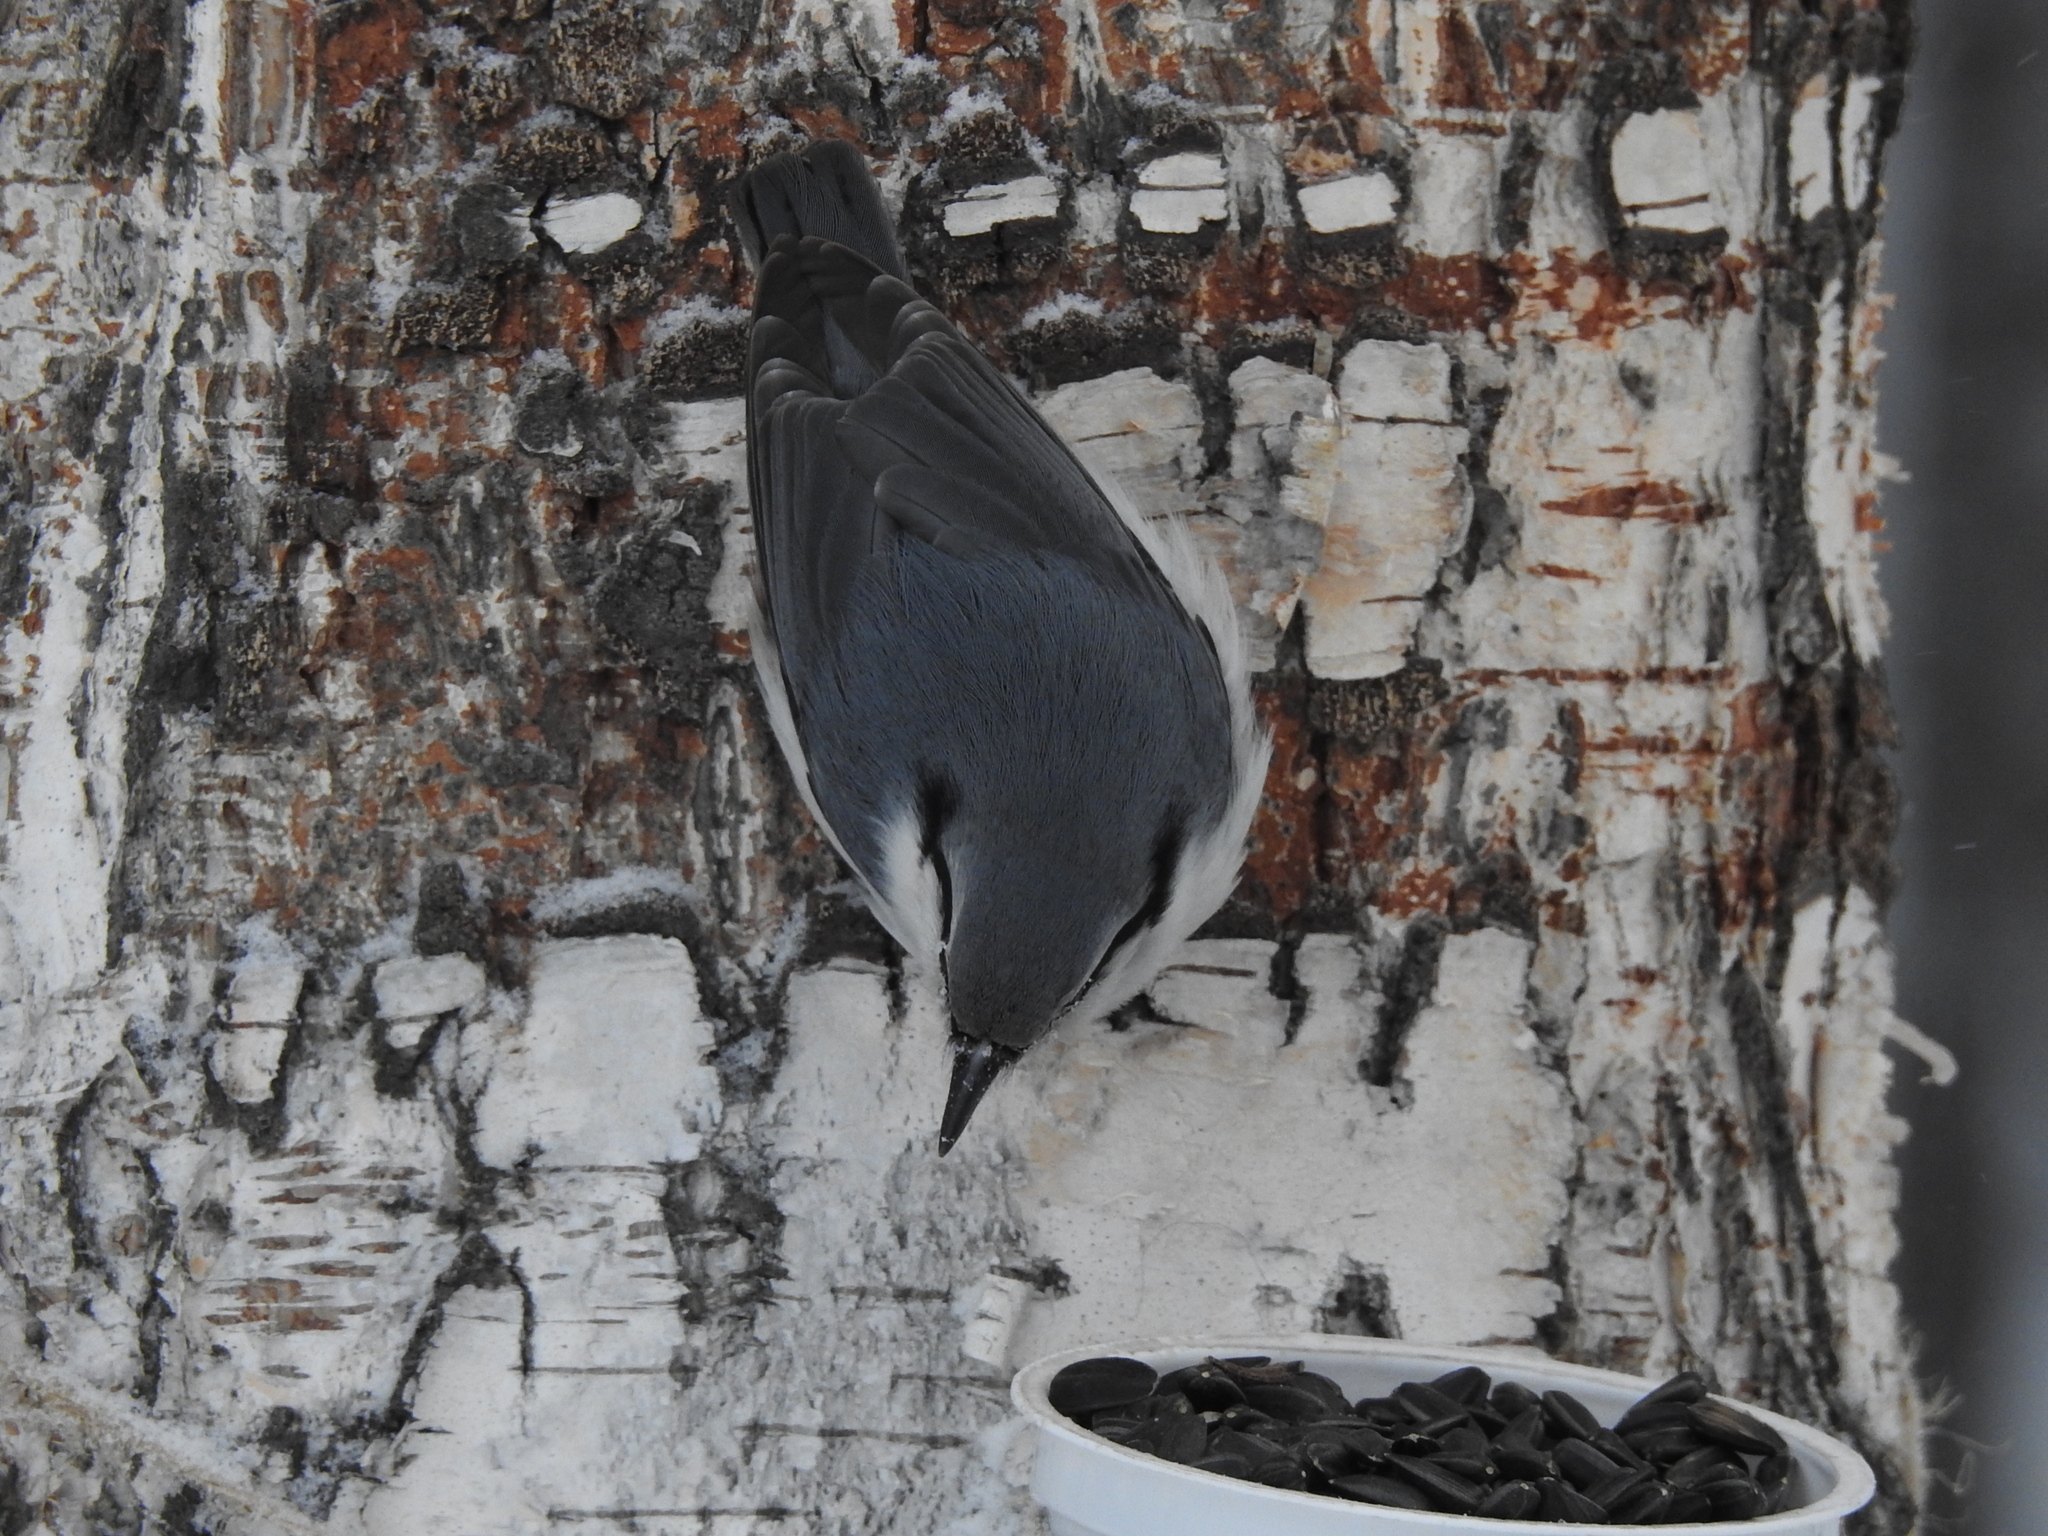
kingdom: Animalia
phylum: Chordata
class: Aves
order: Passeriformes
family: Sittidae
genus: Sitta
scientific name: Sitta europaea
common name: Eurasian nuthatch
